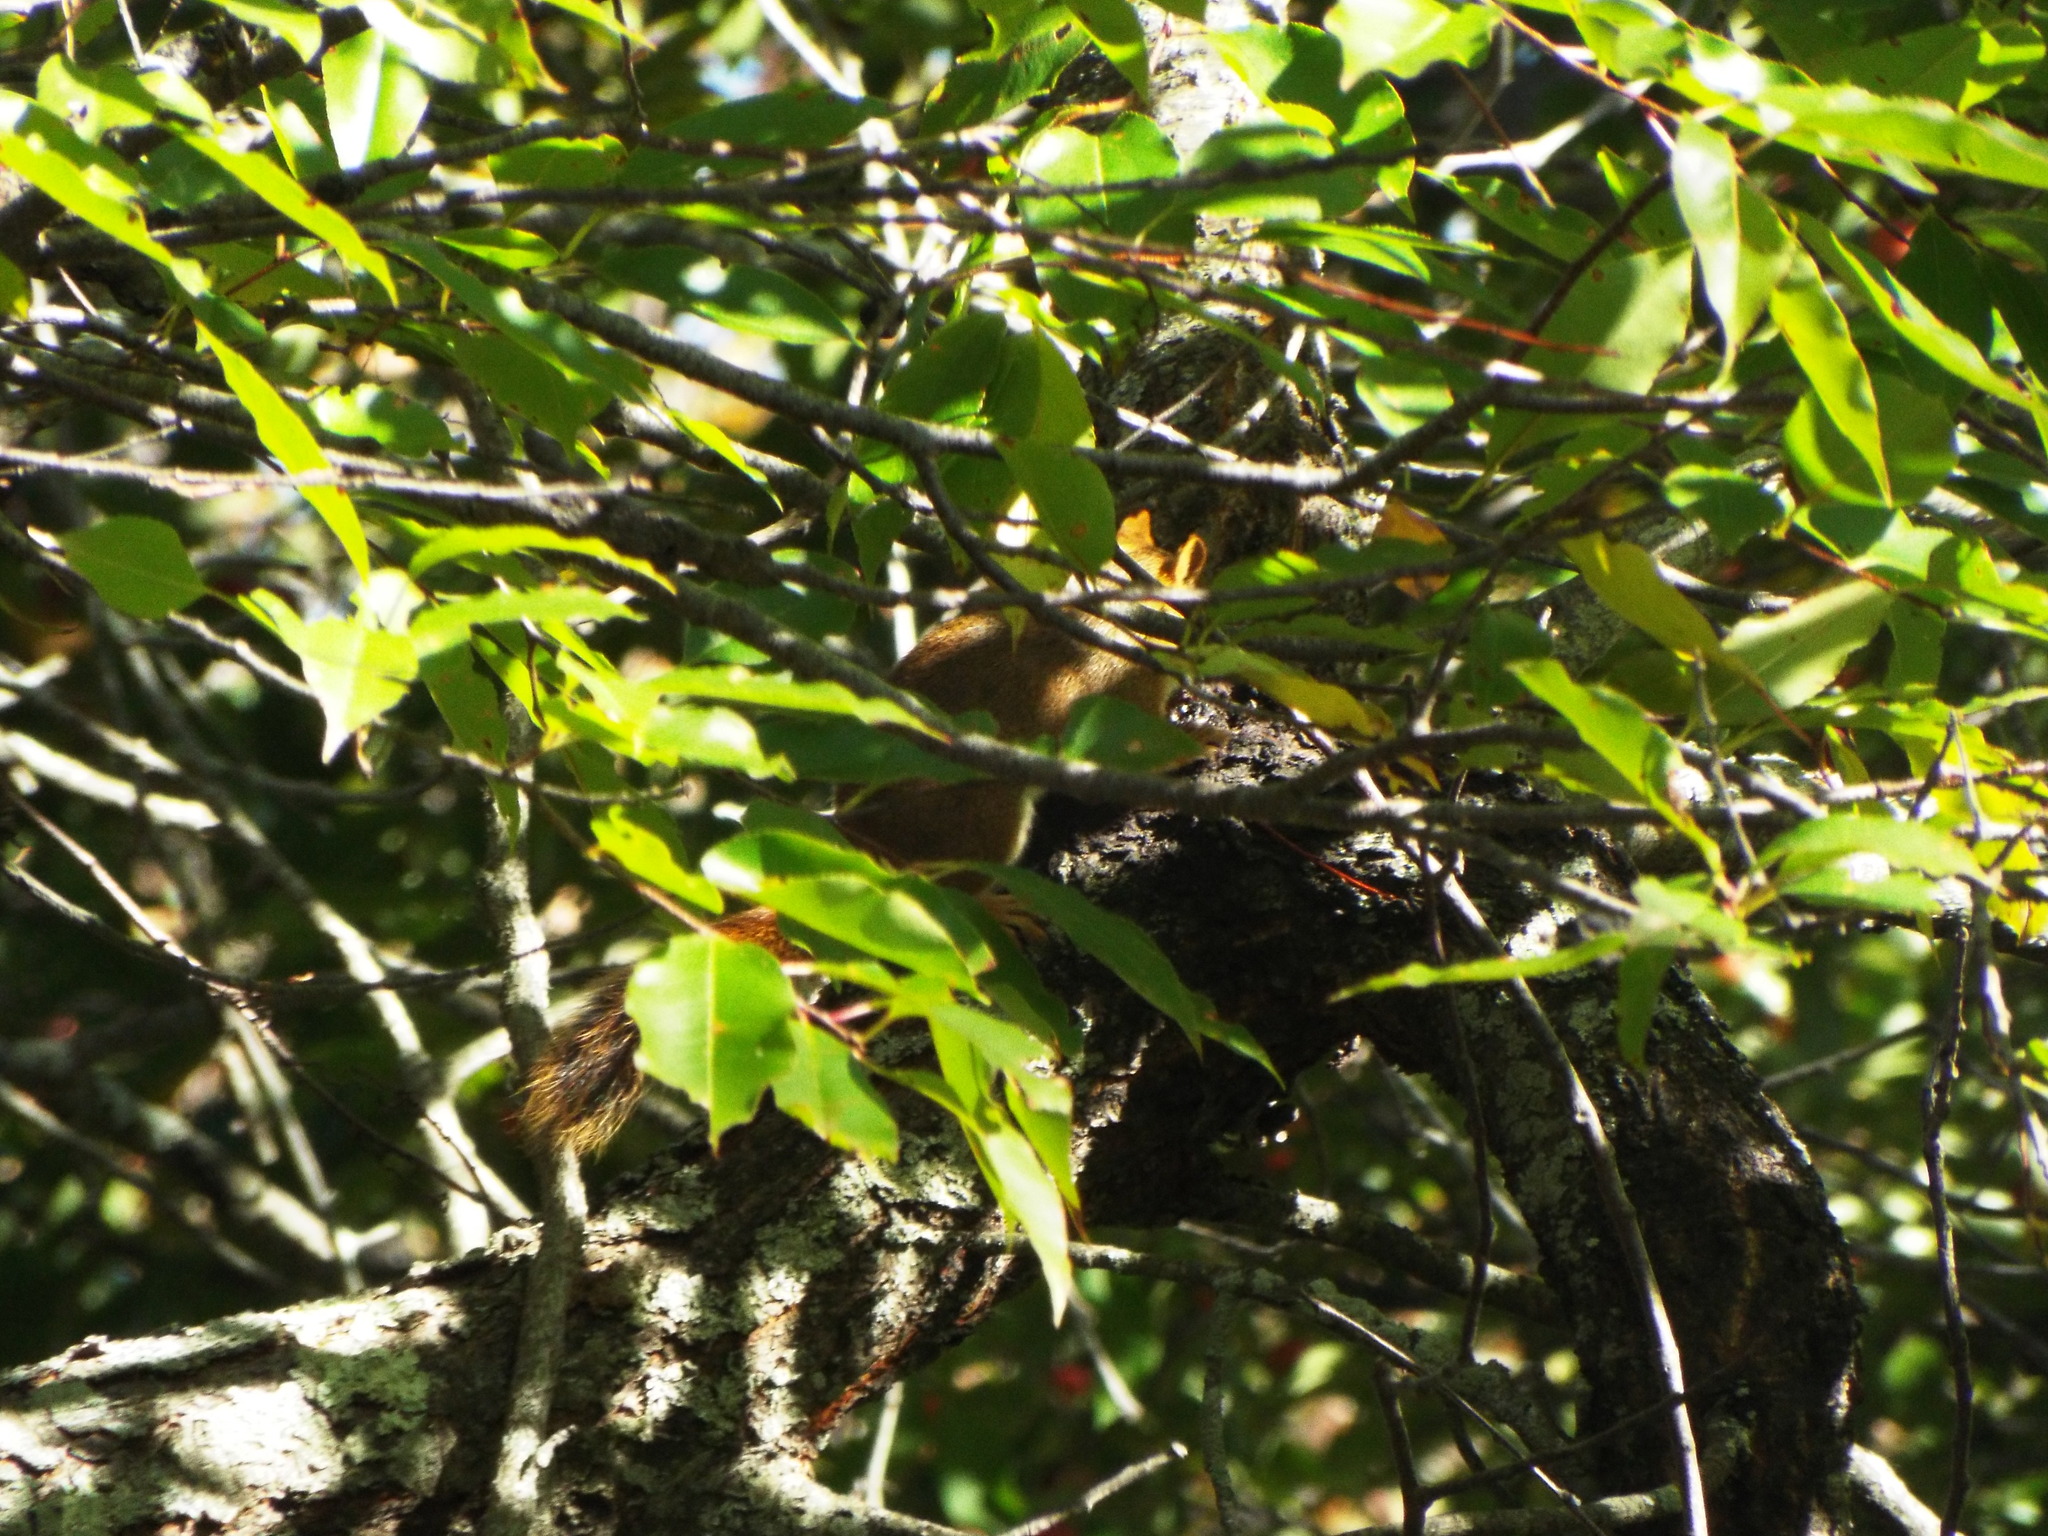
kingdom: Animalia
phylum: Chordata
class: Mammalia
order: Rodentia
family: Sciuridae
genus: Tamiasciurus
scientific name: Tamiasciurus hudsonicus
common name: Red squirrel
